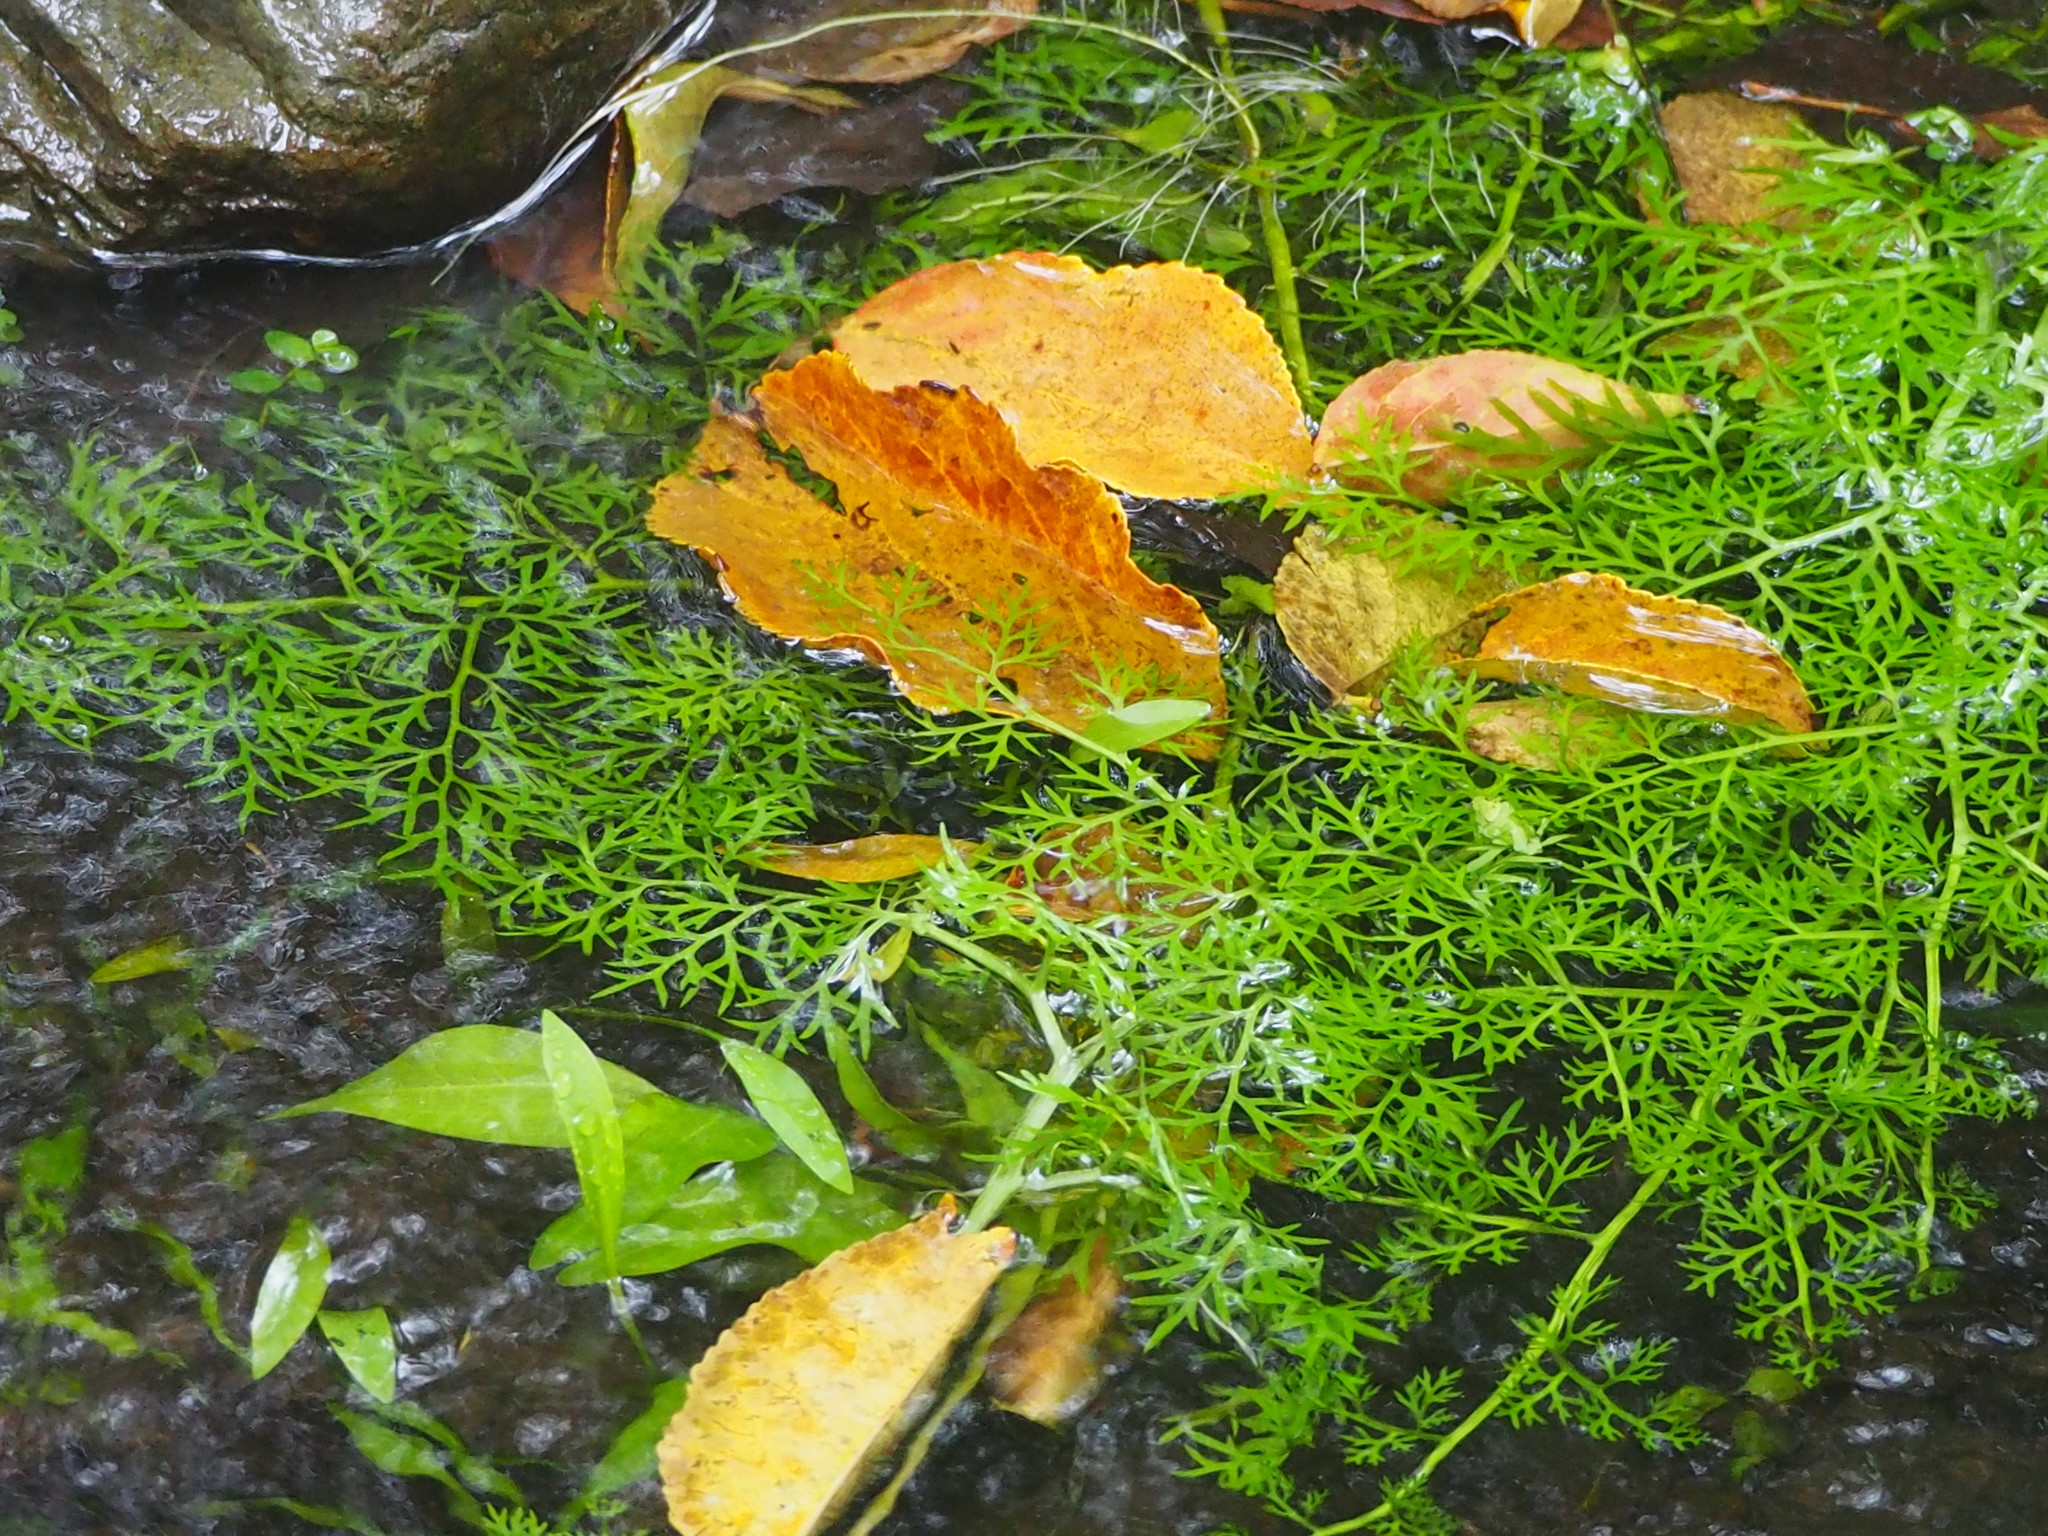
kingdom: Plantae
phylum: Tracheophyta
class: Polypodiopsida
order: Polypodiales
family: Pteridaceae
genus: Ceratopteris
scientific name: Ceratopteris thalictroides
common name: Water fern
